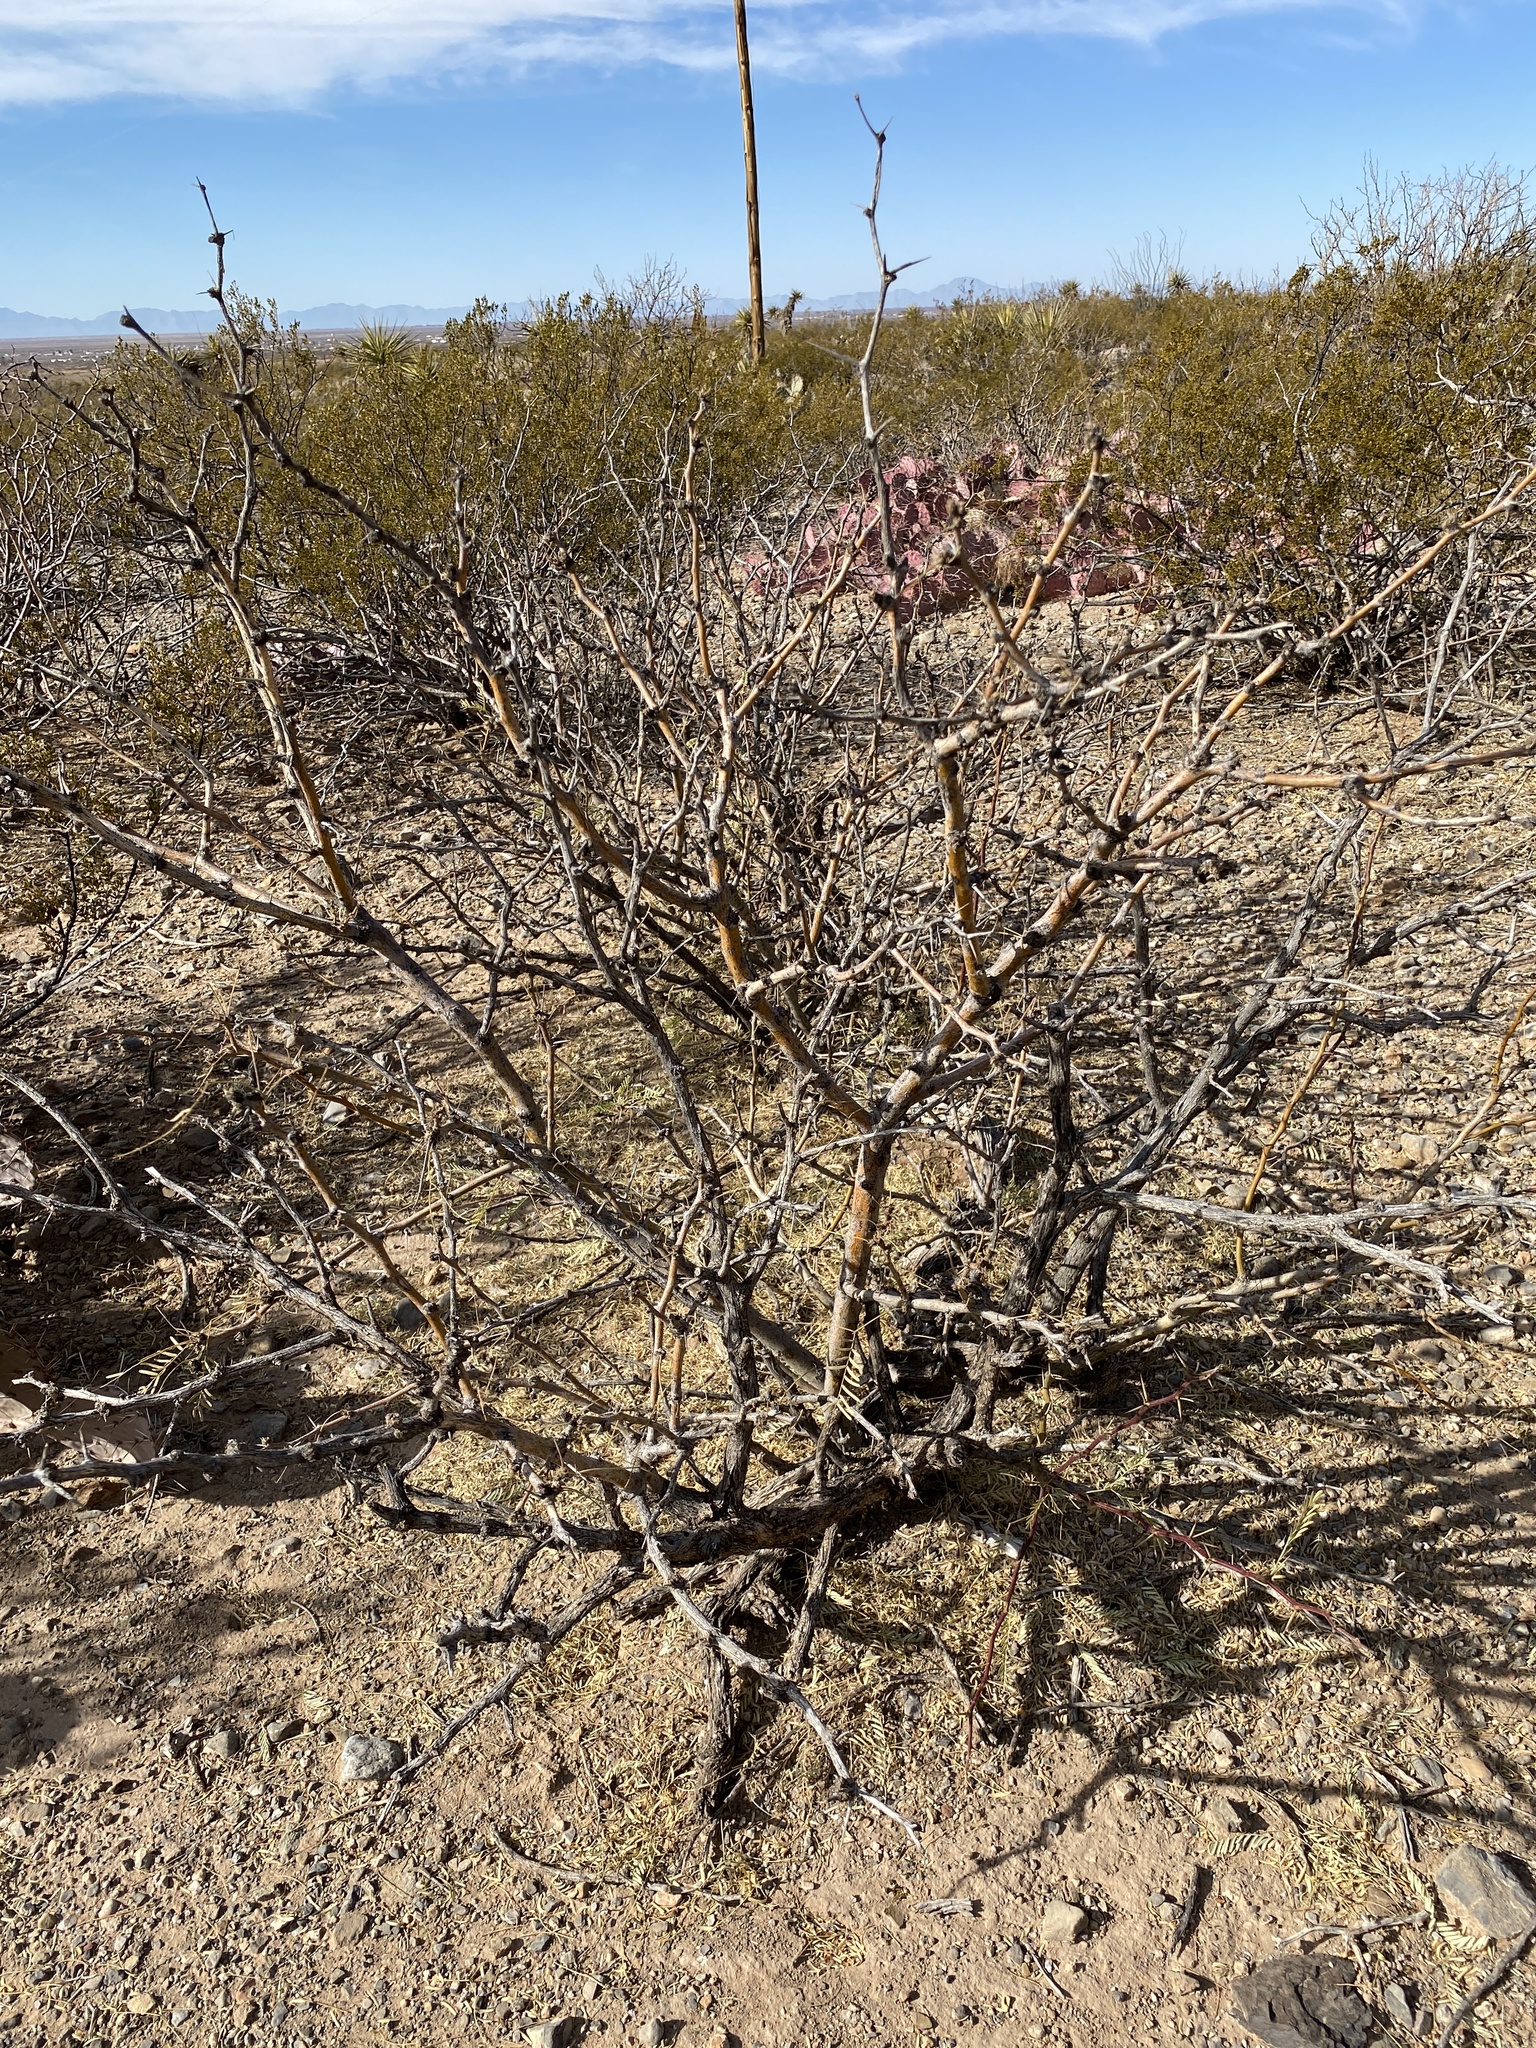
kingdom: Plantae
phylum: Tracheophyta
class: Magnoliopsida
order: Fabales
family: Fabaceae
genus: Prosopis
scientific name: Prosopis glandulosa
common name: Honey mesquite
